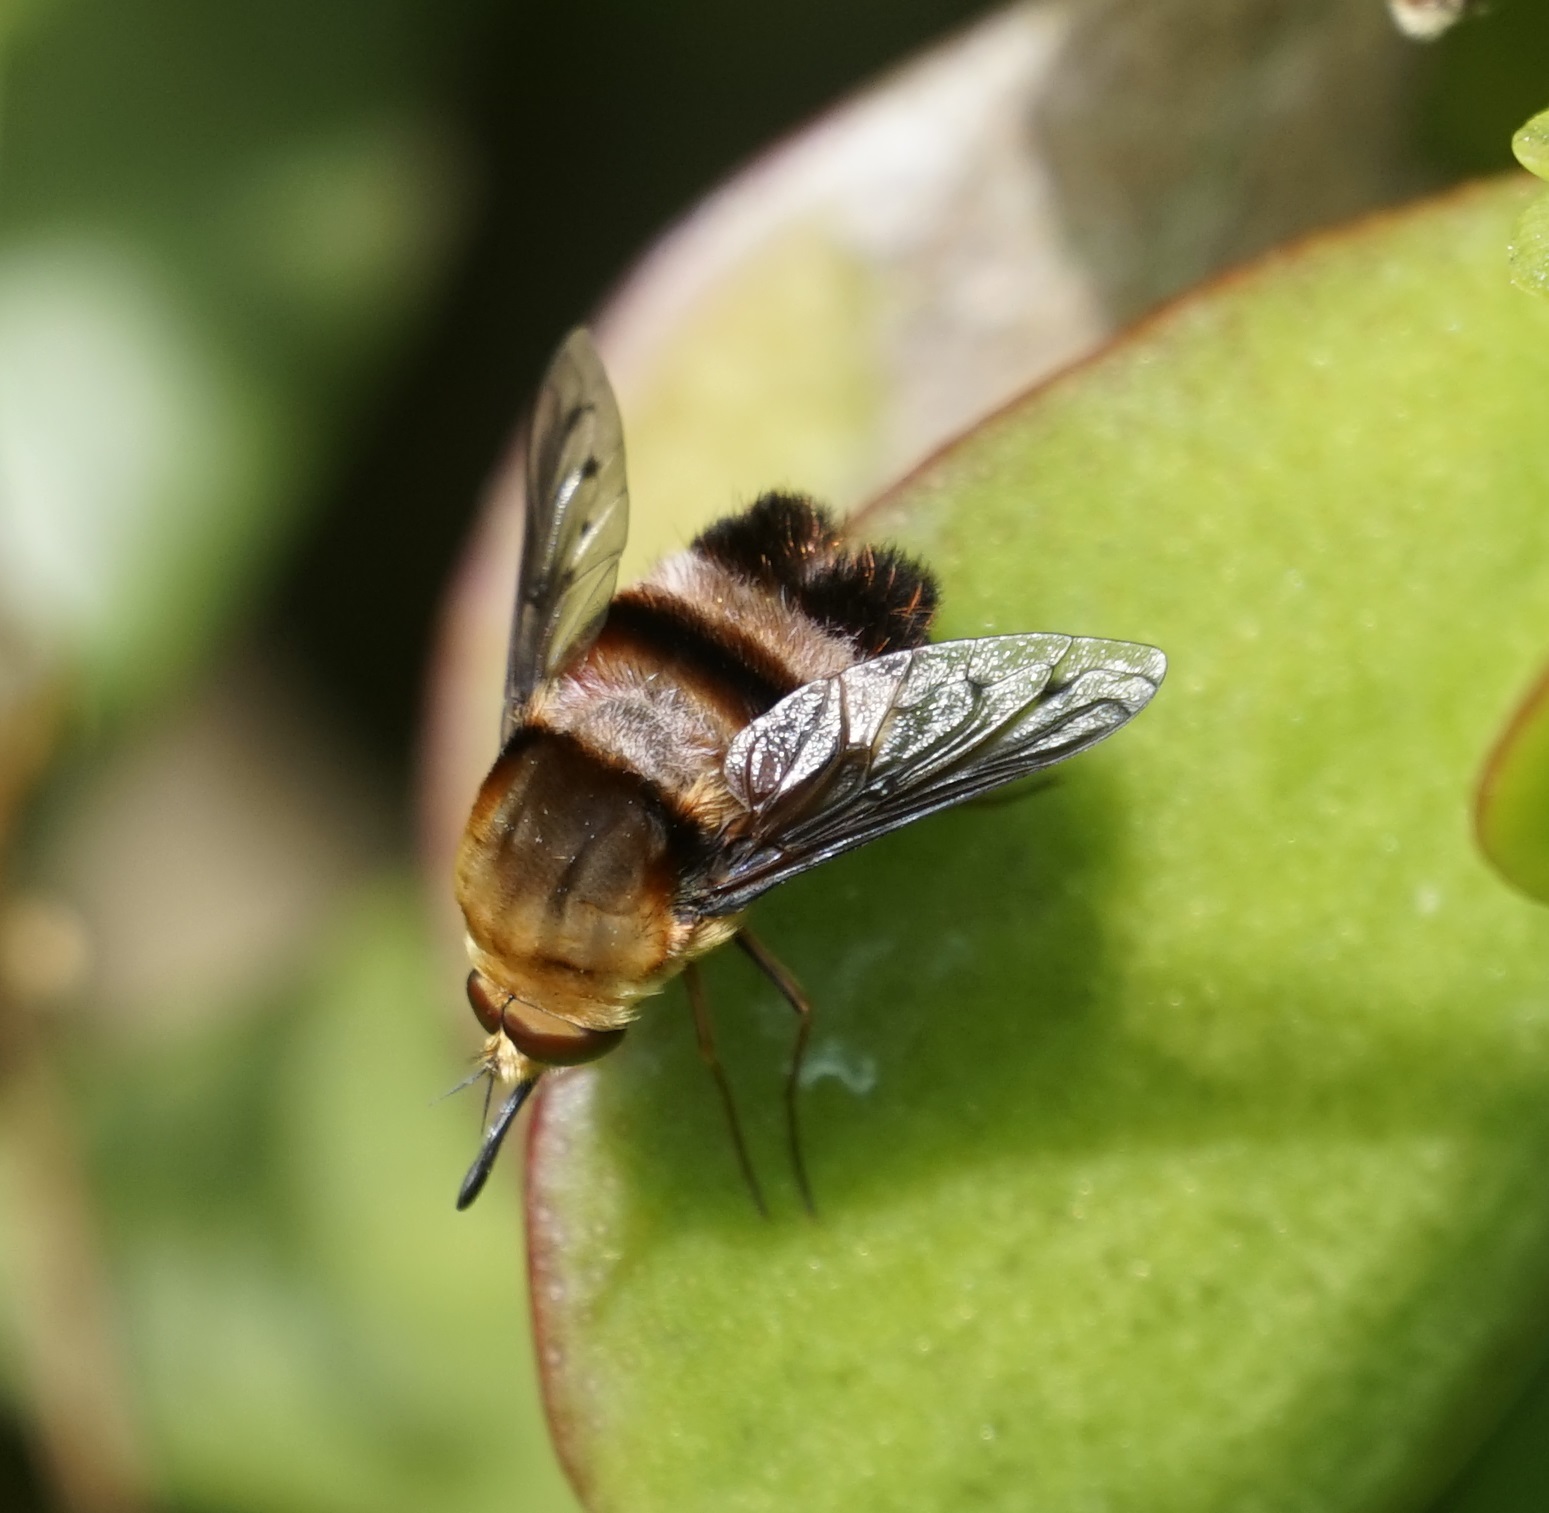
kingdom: Animalia
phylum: Arthropoda
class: Insecta
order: Diptera
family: Bombyliidae
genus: Meomyia
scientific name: Meomyia fasciculata
